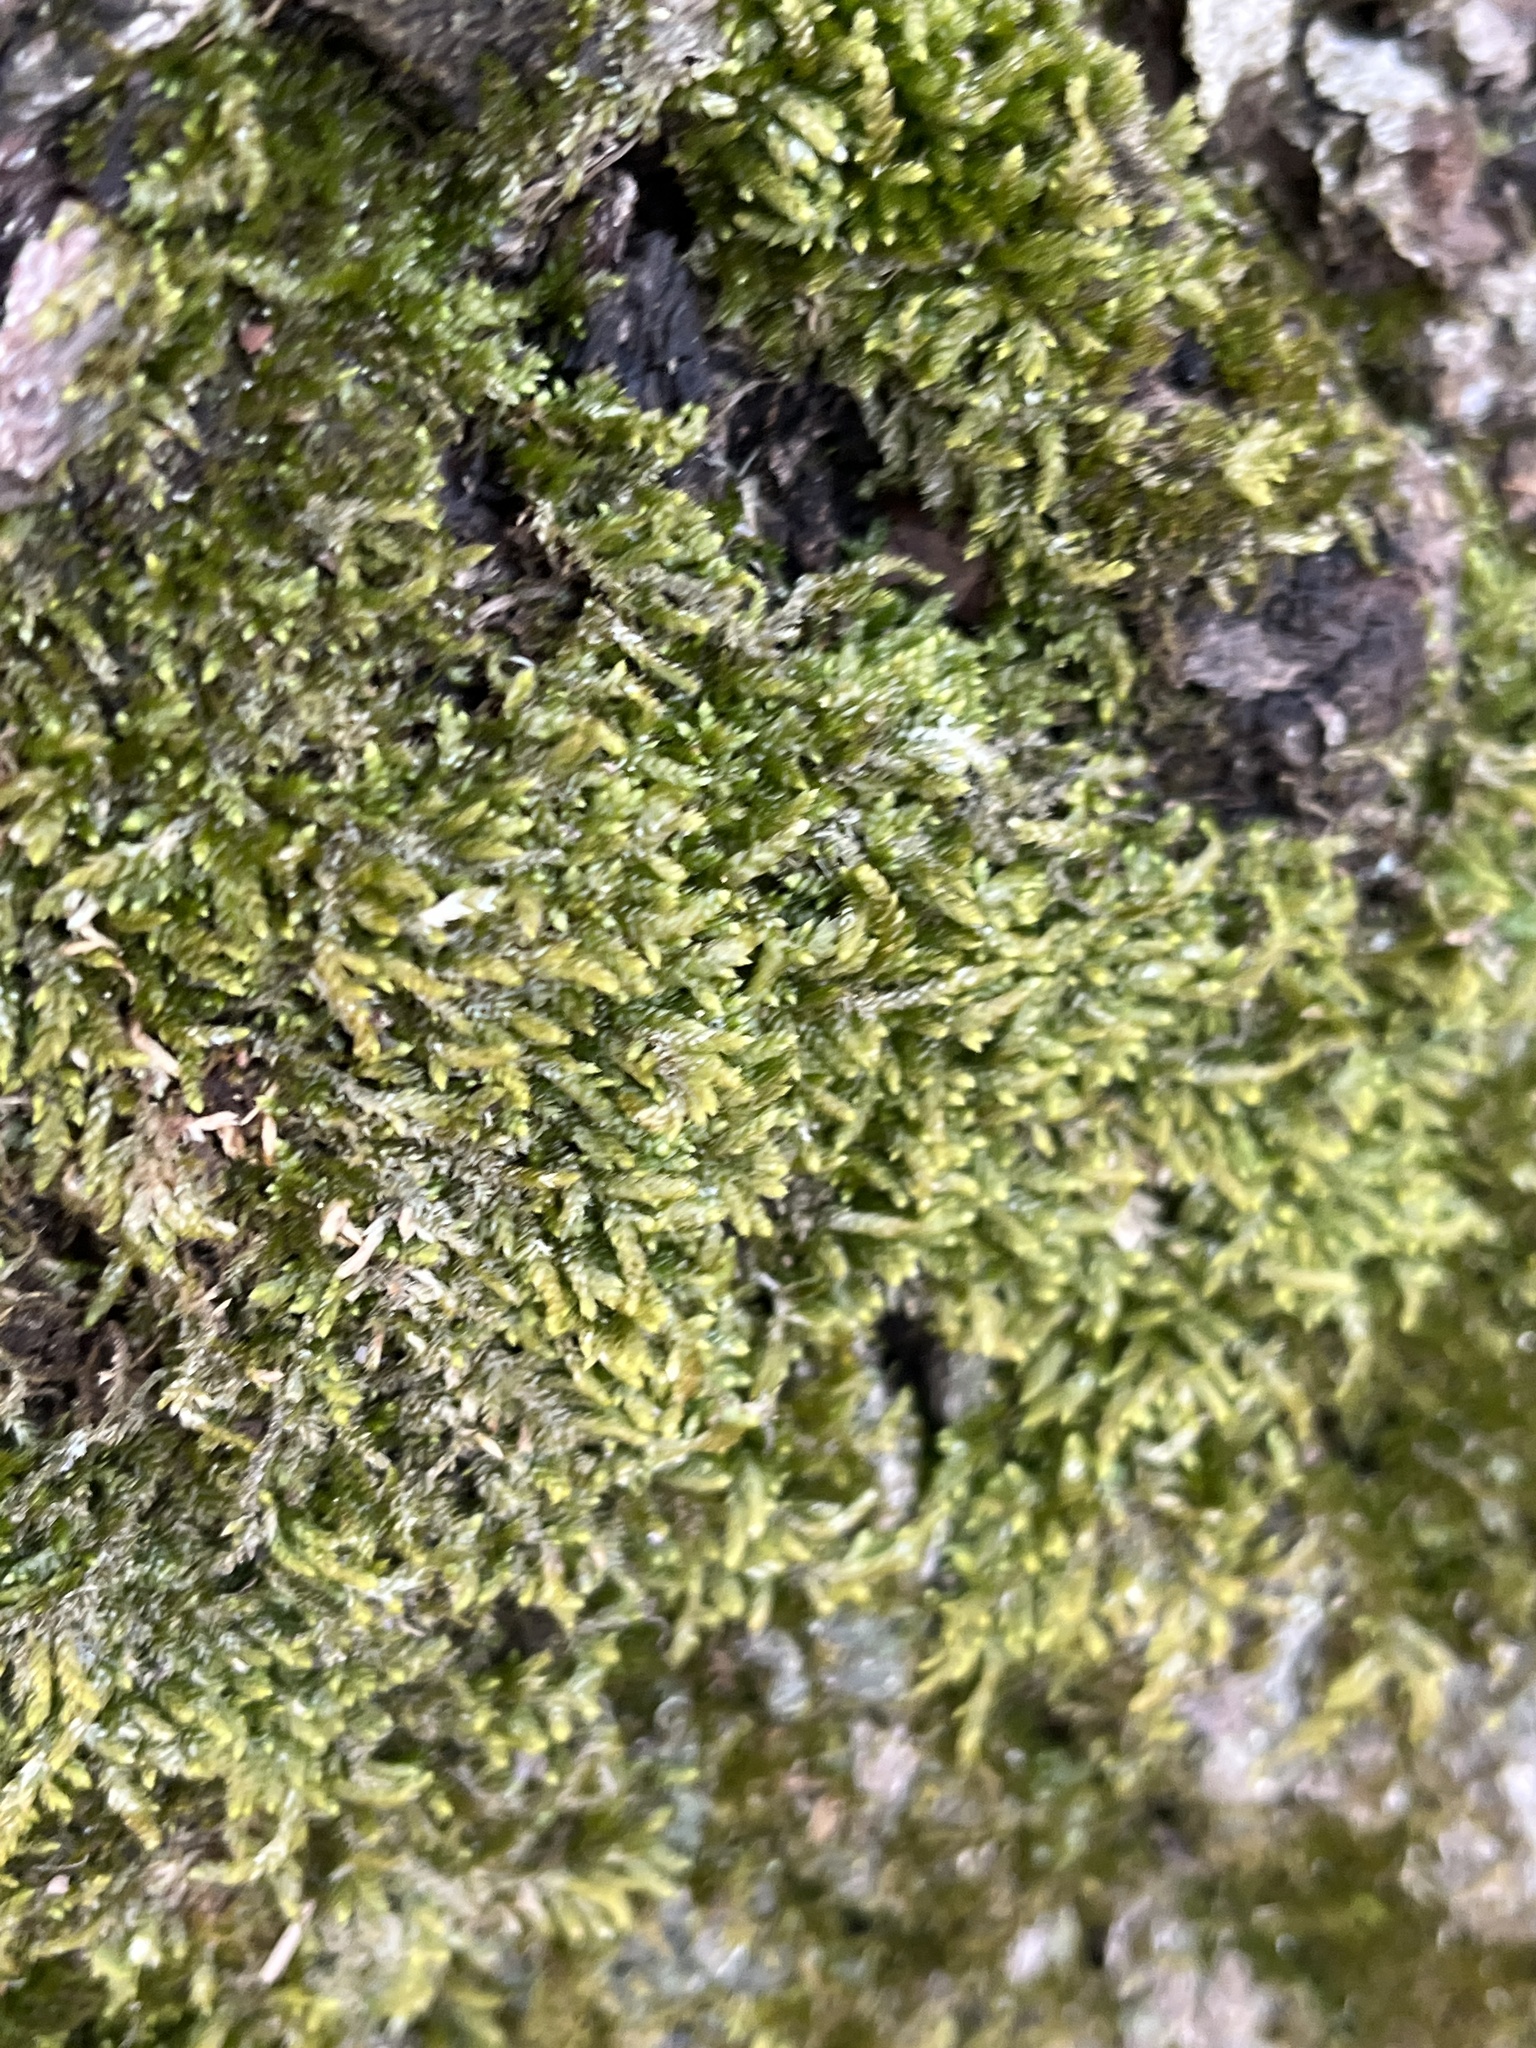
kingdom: Plantae
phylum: Bryophyta
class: Bryopsida
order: Hypnales
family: Entodontaceae
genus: Entodon
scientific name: Entodon seductrix
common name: Round-stemmed entodon moss
